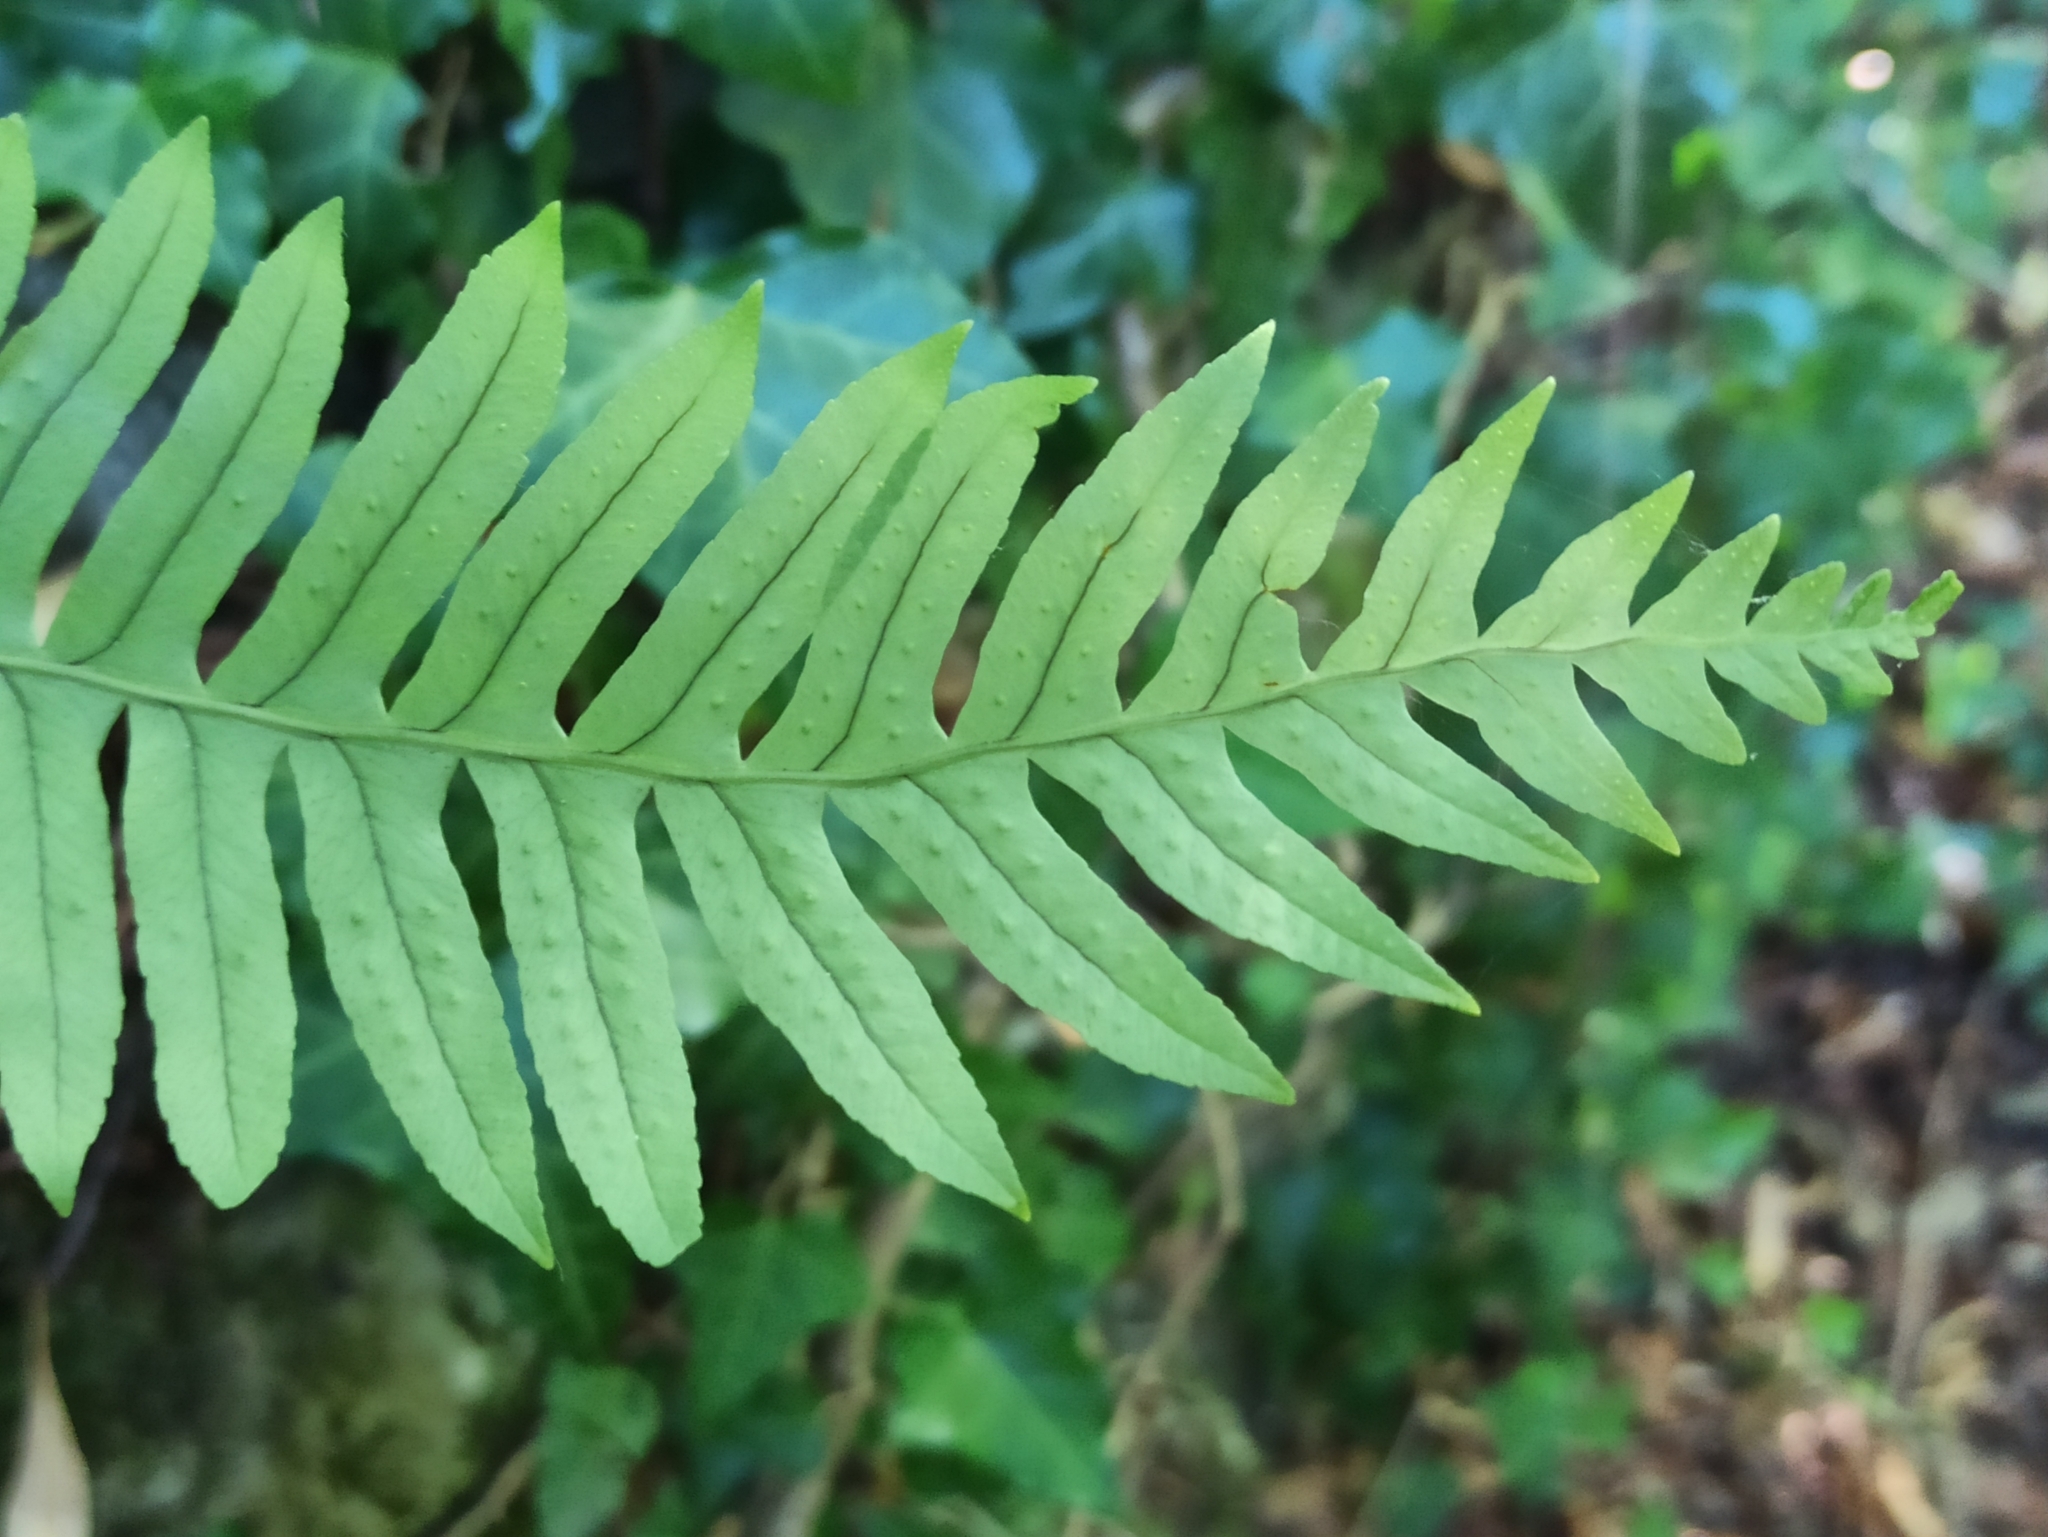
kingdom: Plantae
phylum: Tracheophyta
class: Polypodiopsida
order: Polypodiales
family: Polypodiaceae
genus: Polypodium
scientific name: Polypodium vulgare
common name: Common polypody
